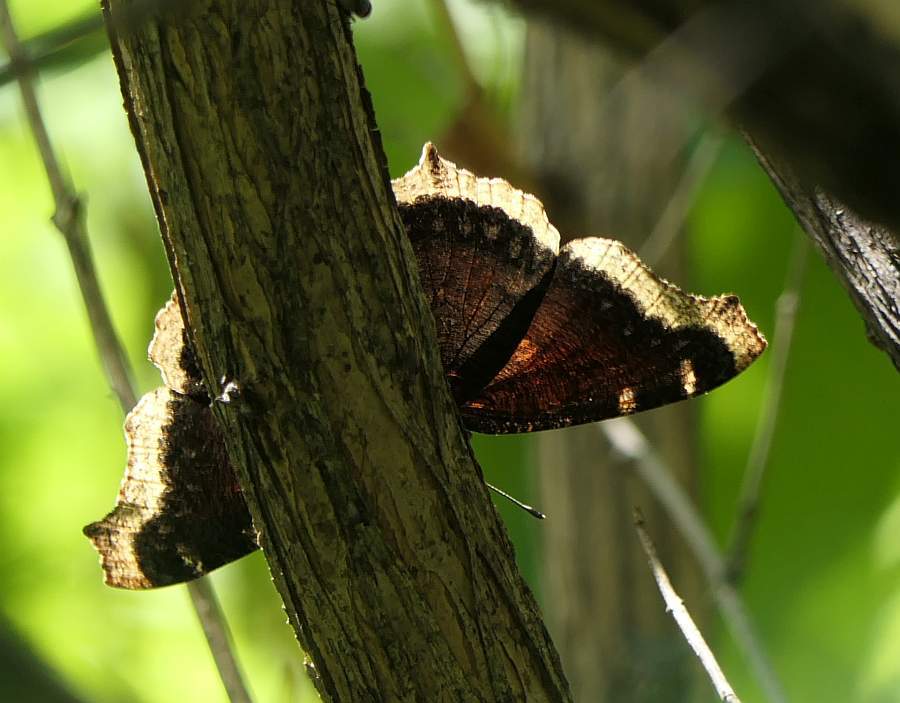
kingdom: Animalia
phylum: Arthropoda
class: Insecta
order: Lepidoptera
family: Nymphalidae
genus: Nymphalis
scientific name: Nymphalis antiopa
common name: Camberwell beauty
